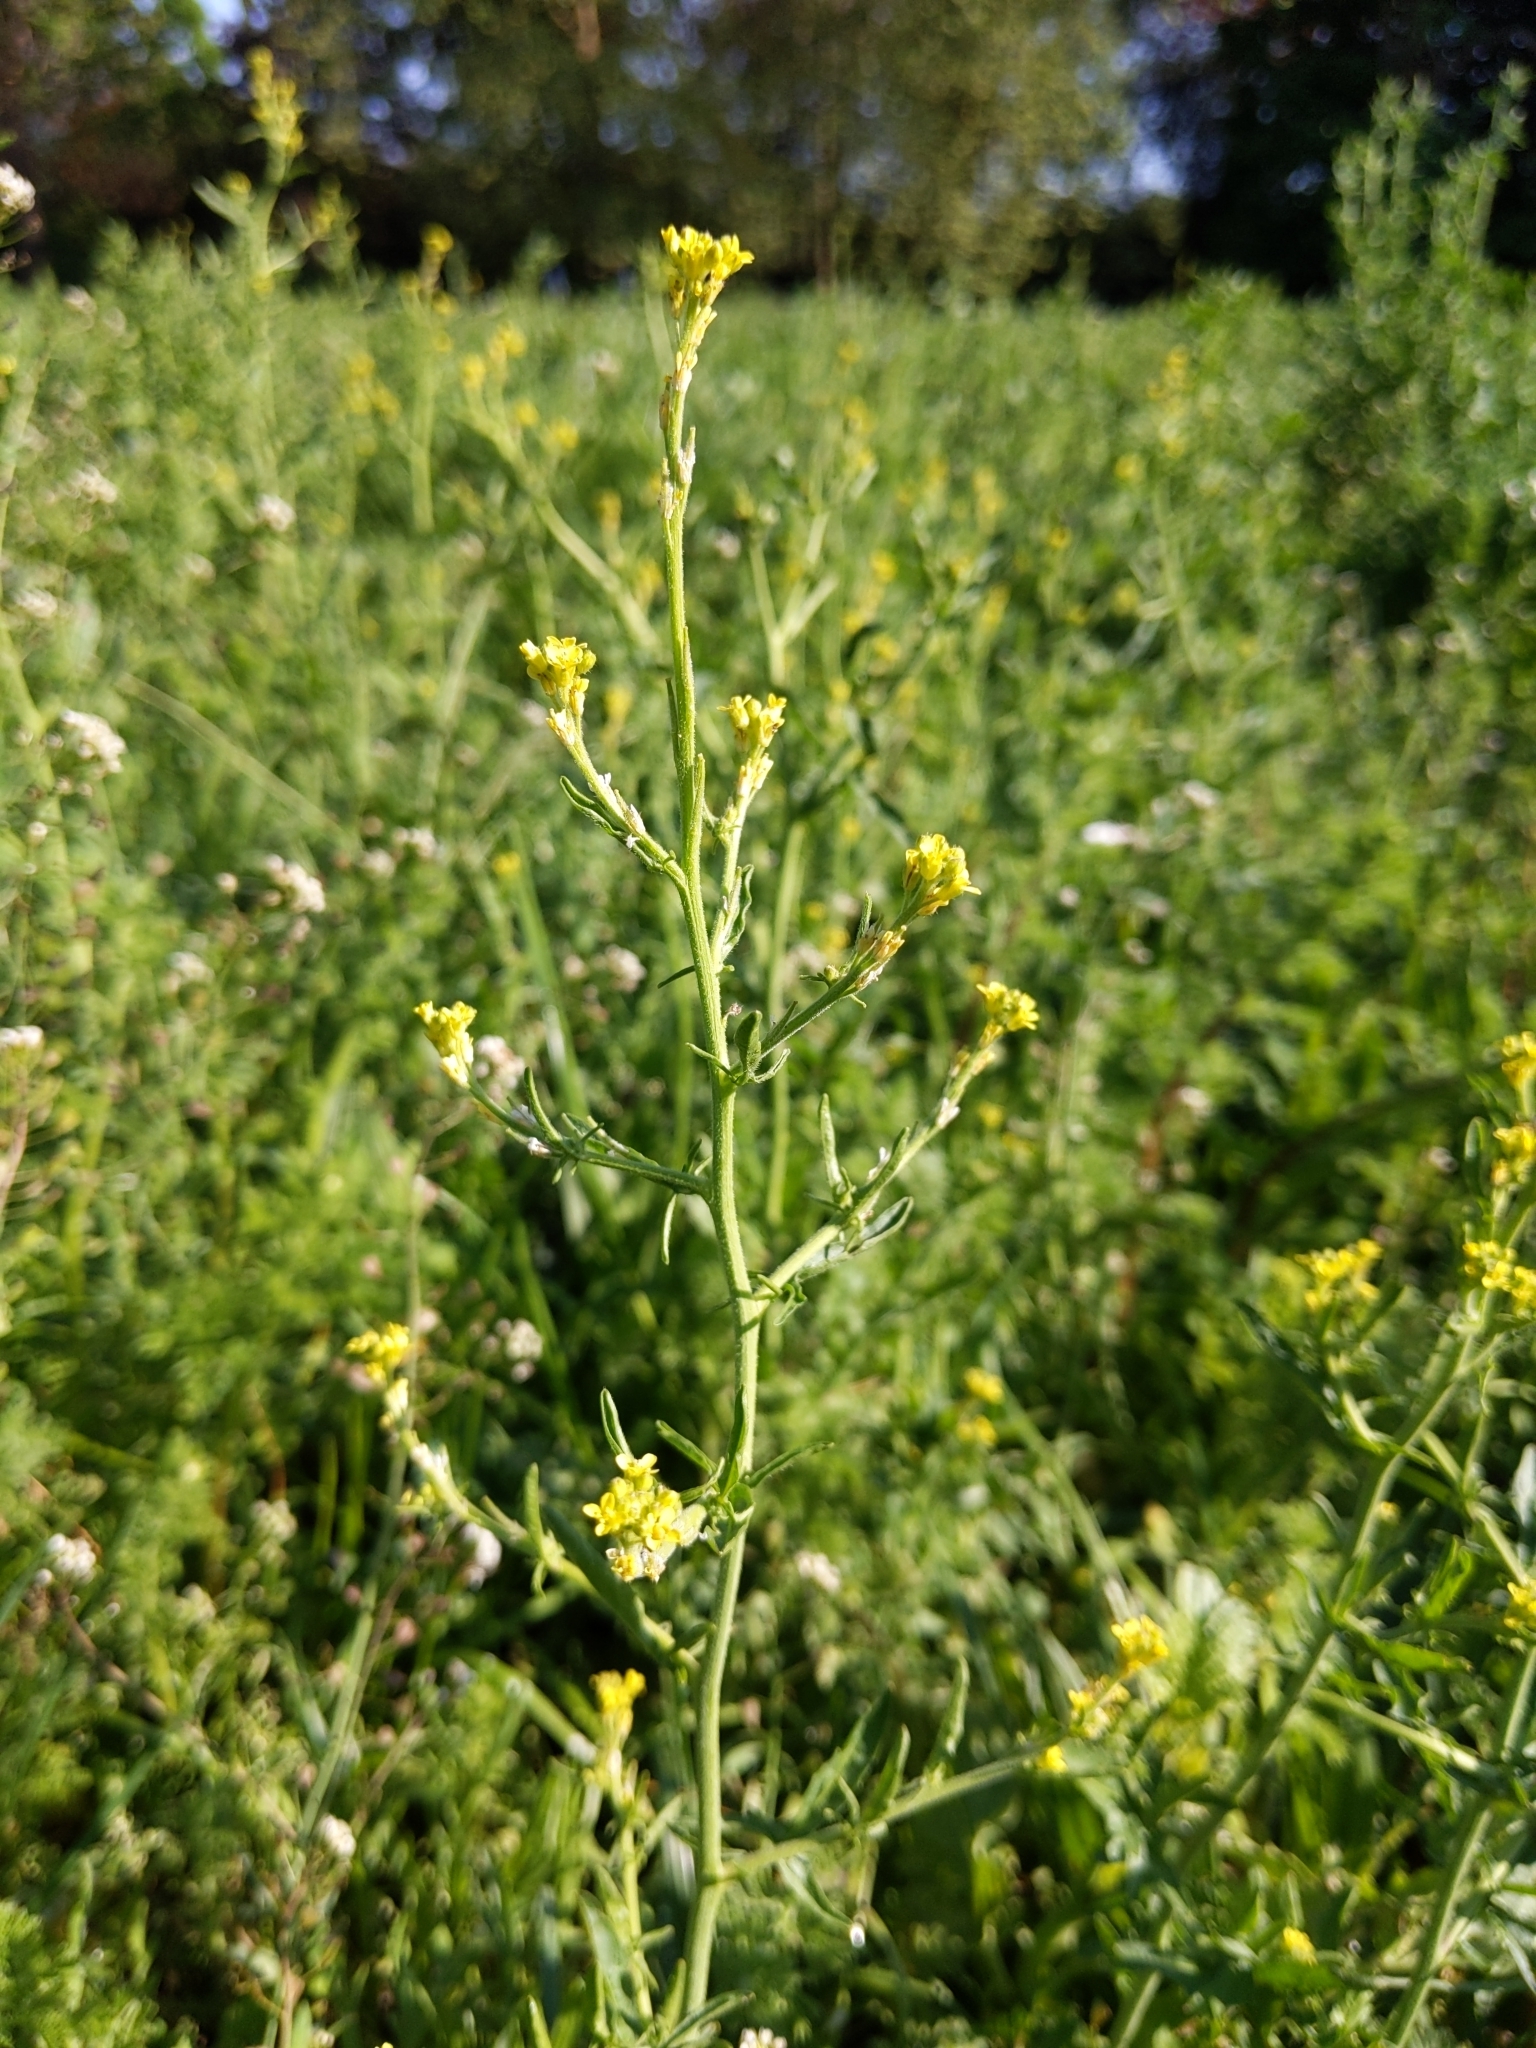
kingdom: Plantae
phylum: Tracheophyta
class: Magnoliopsida
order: Brassicales
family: Brassicaceae
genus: Sisymbrium
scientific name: Sisymbrium officinale
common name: Hedge mustard
